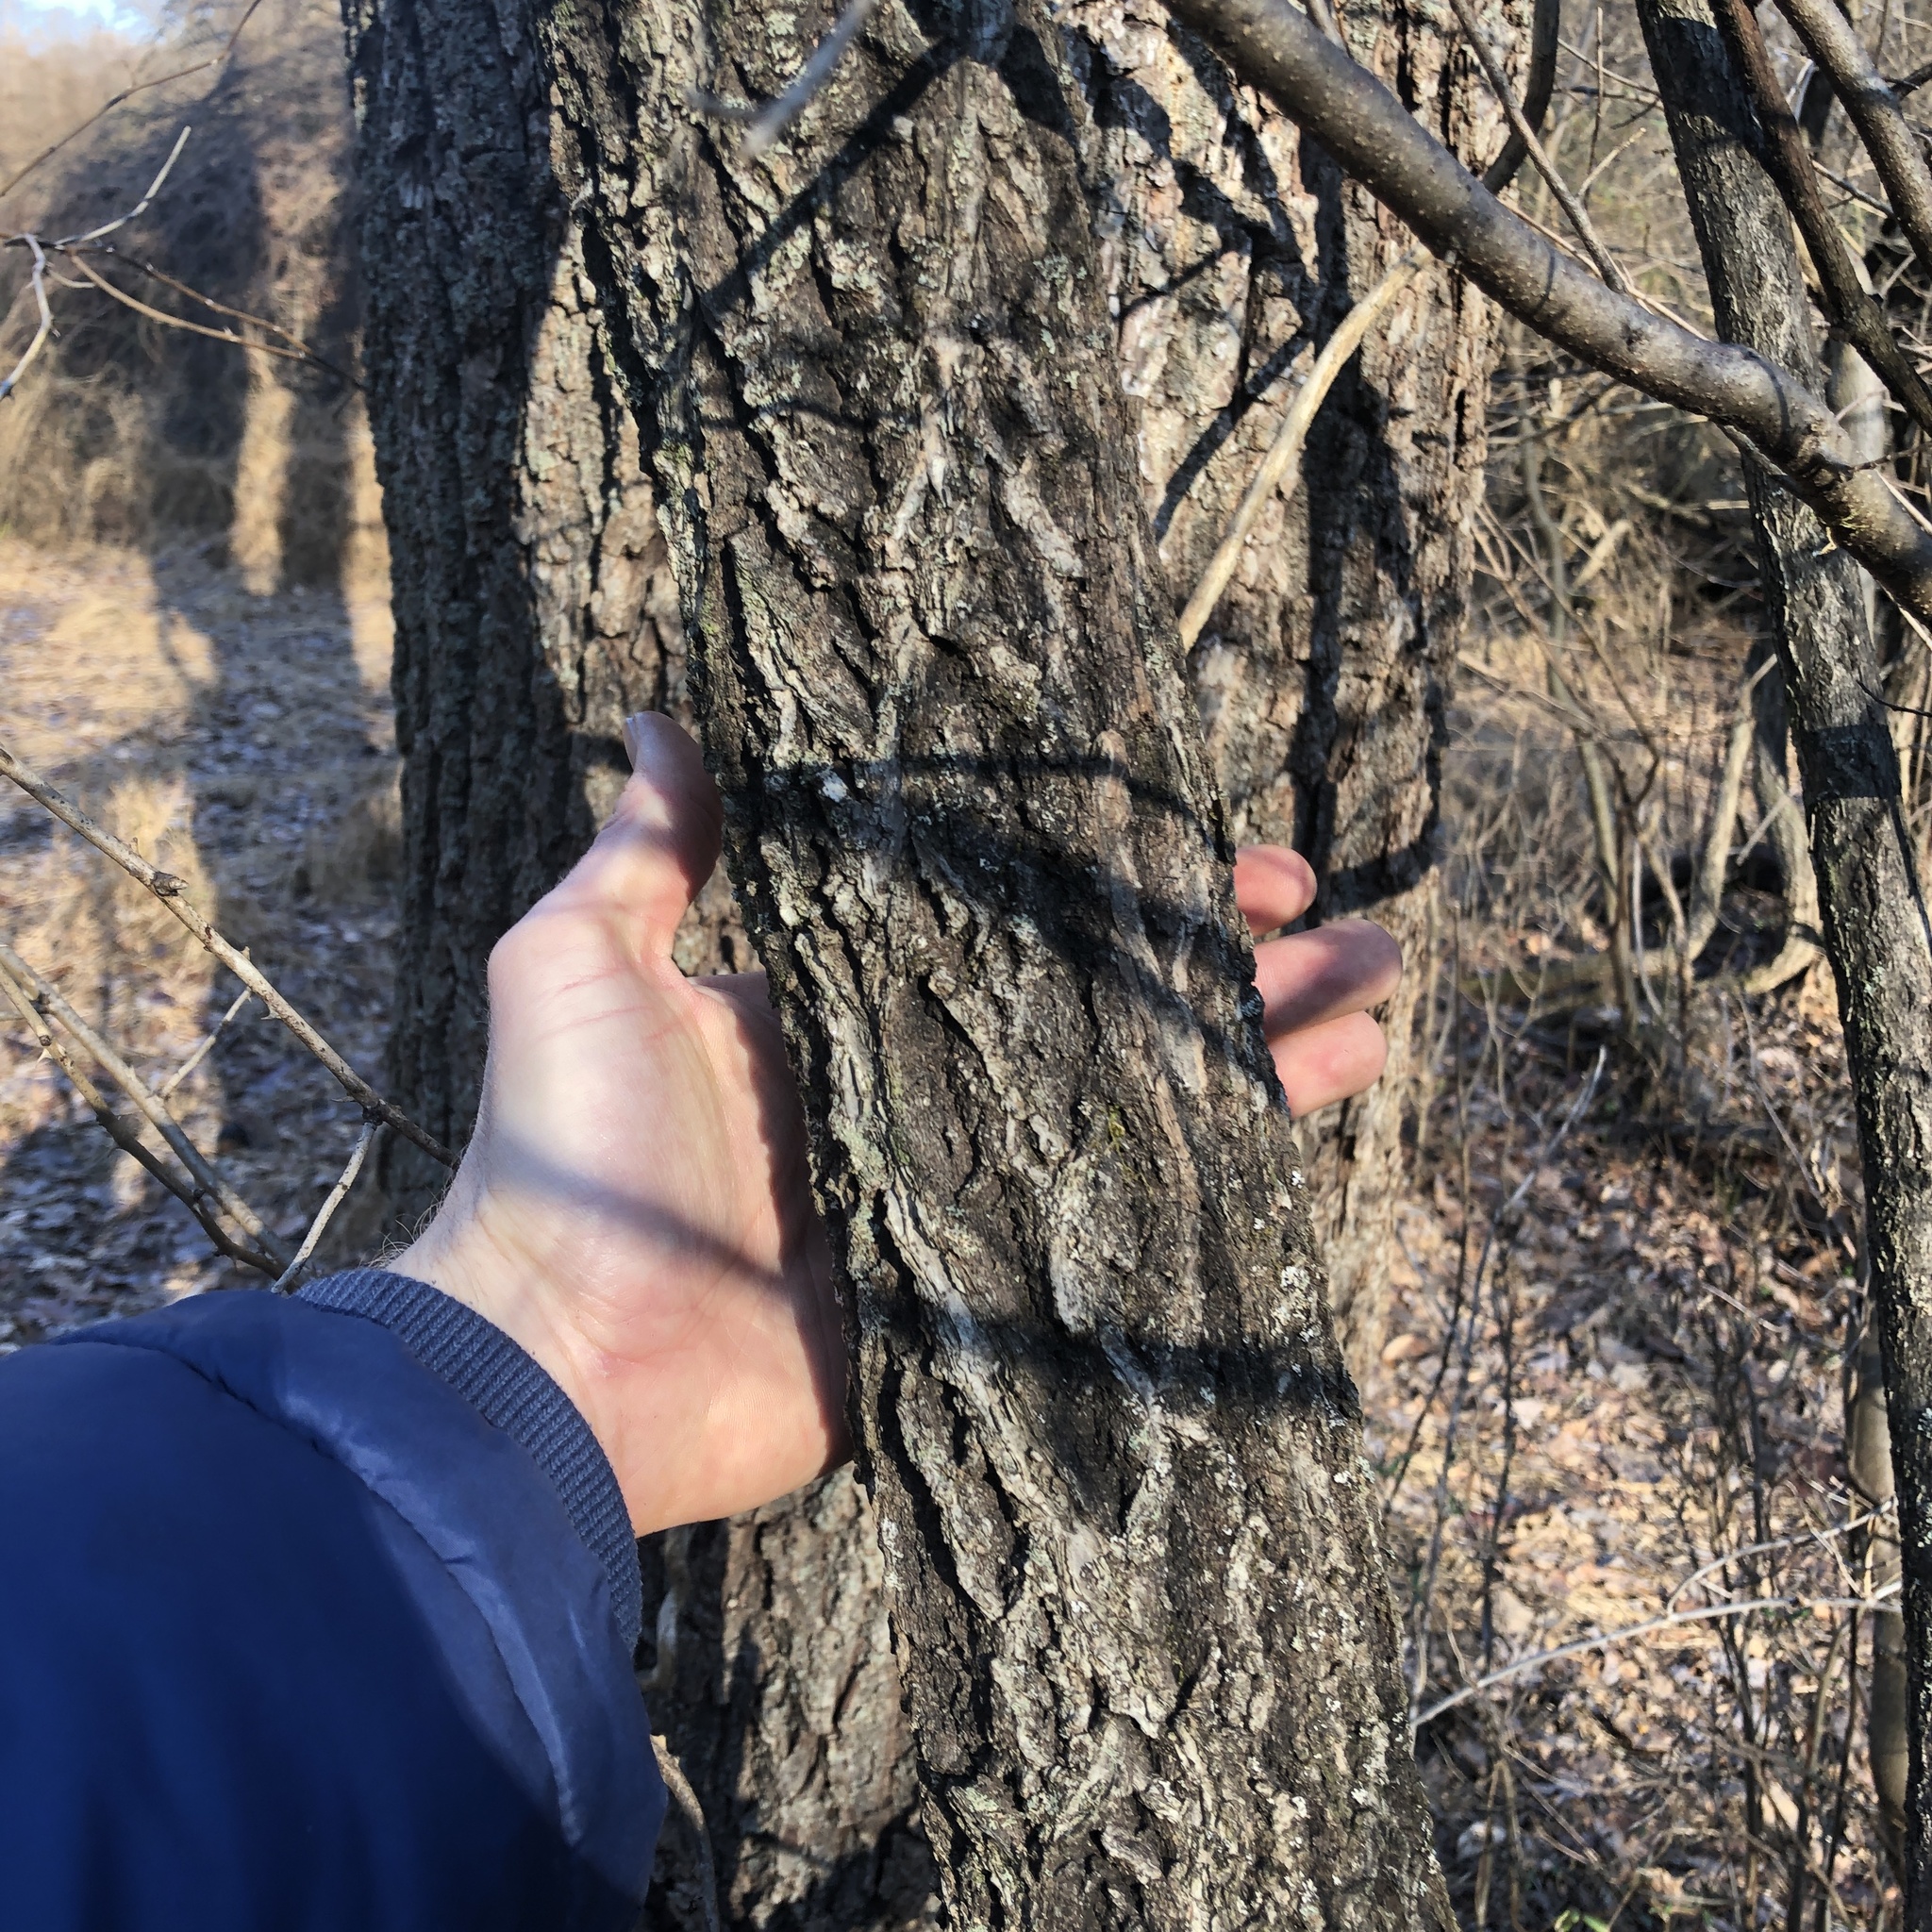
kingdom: Plantae
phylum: Tracheophyta
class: Magnoliopsida
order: Celastrales
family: Celastraceae
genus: Celastrus
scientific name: Celastrus orbiculatus
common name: Oriental bittersweet
